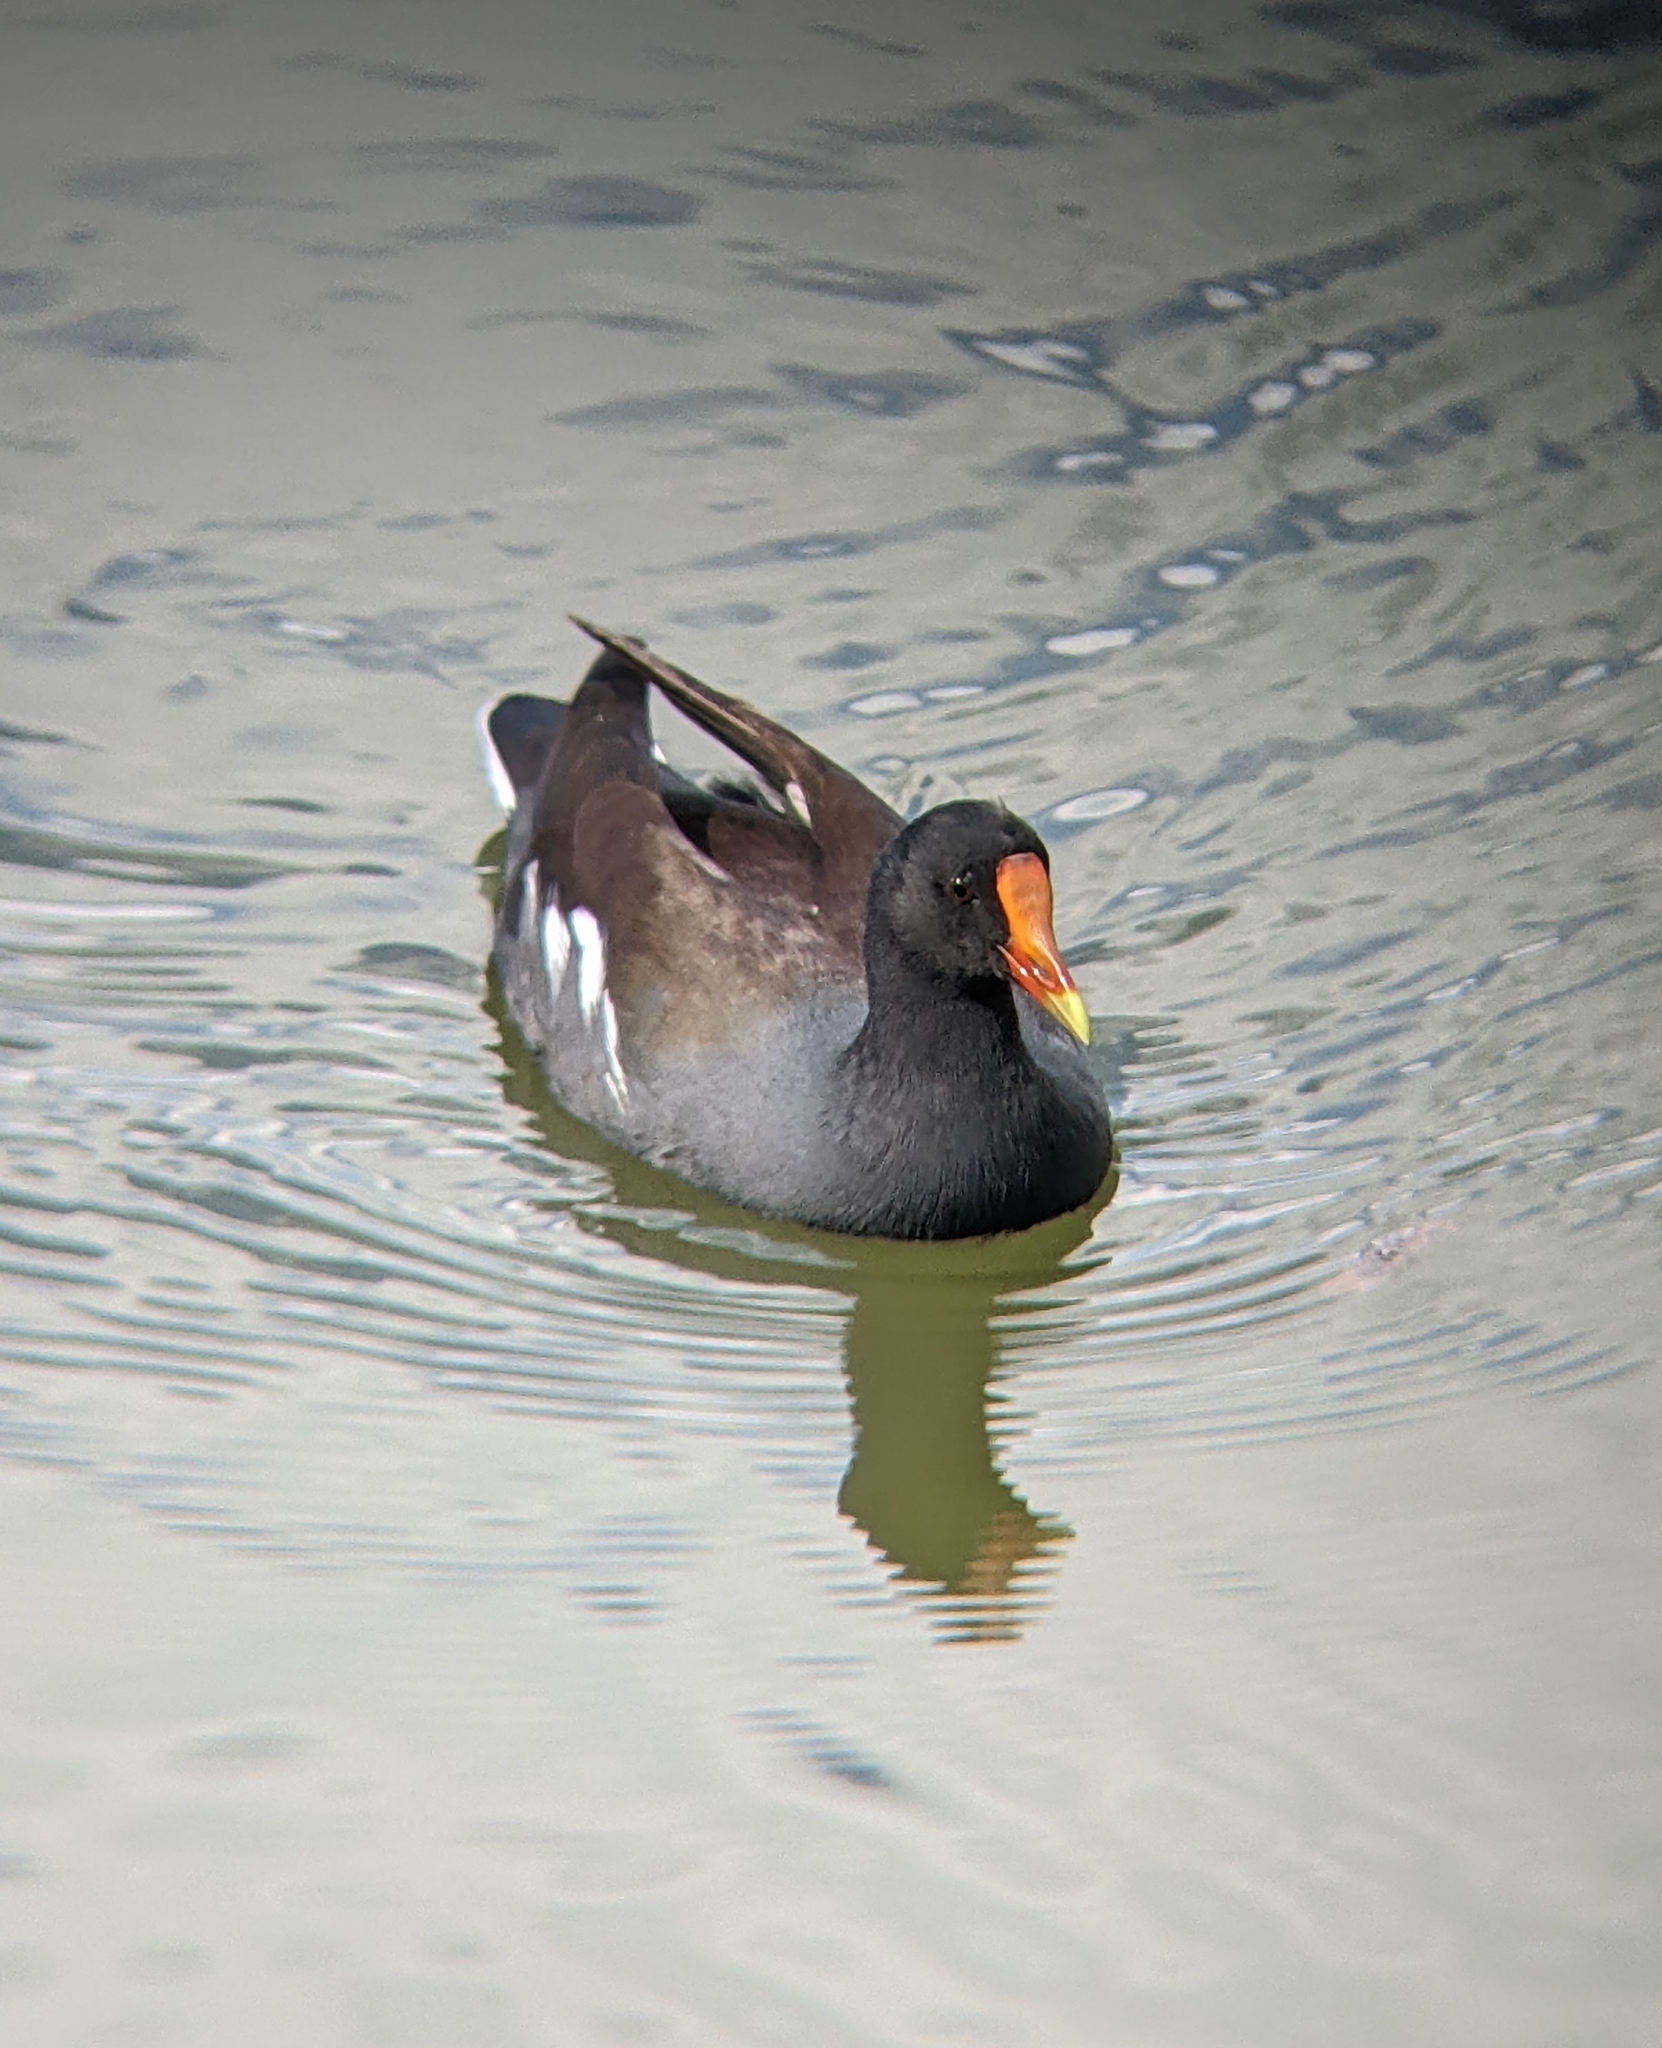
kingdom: Animalia
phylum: Chordata
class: Aves
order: Gruiformes
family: Rallidae
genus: Gallinula
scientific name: Gallinula chloropus
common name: Common moorhen
